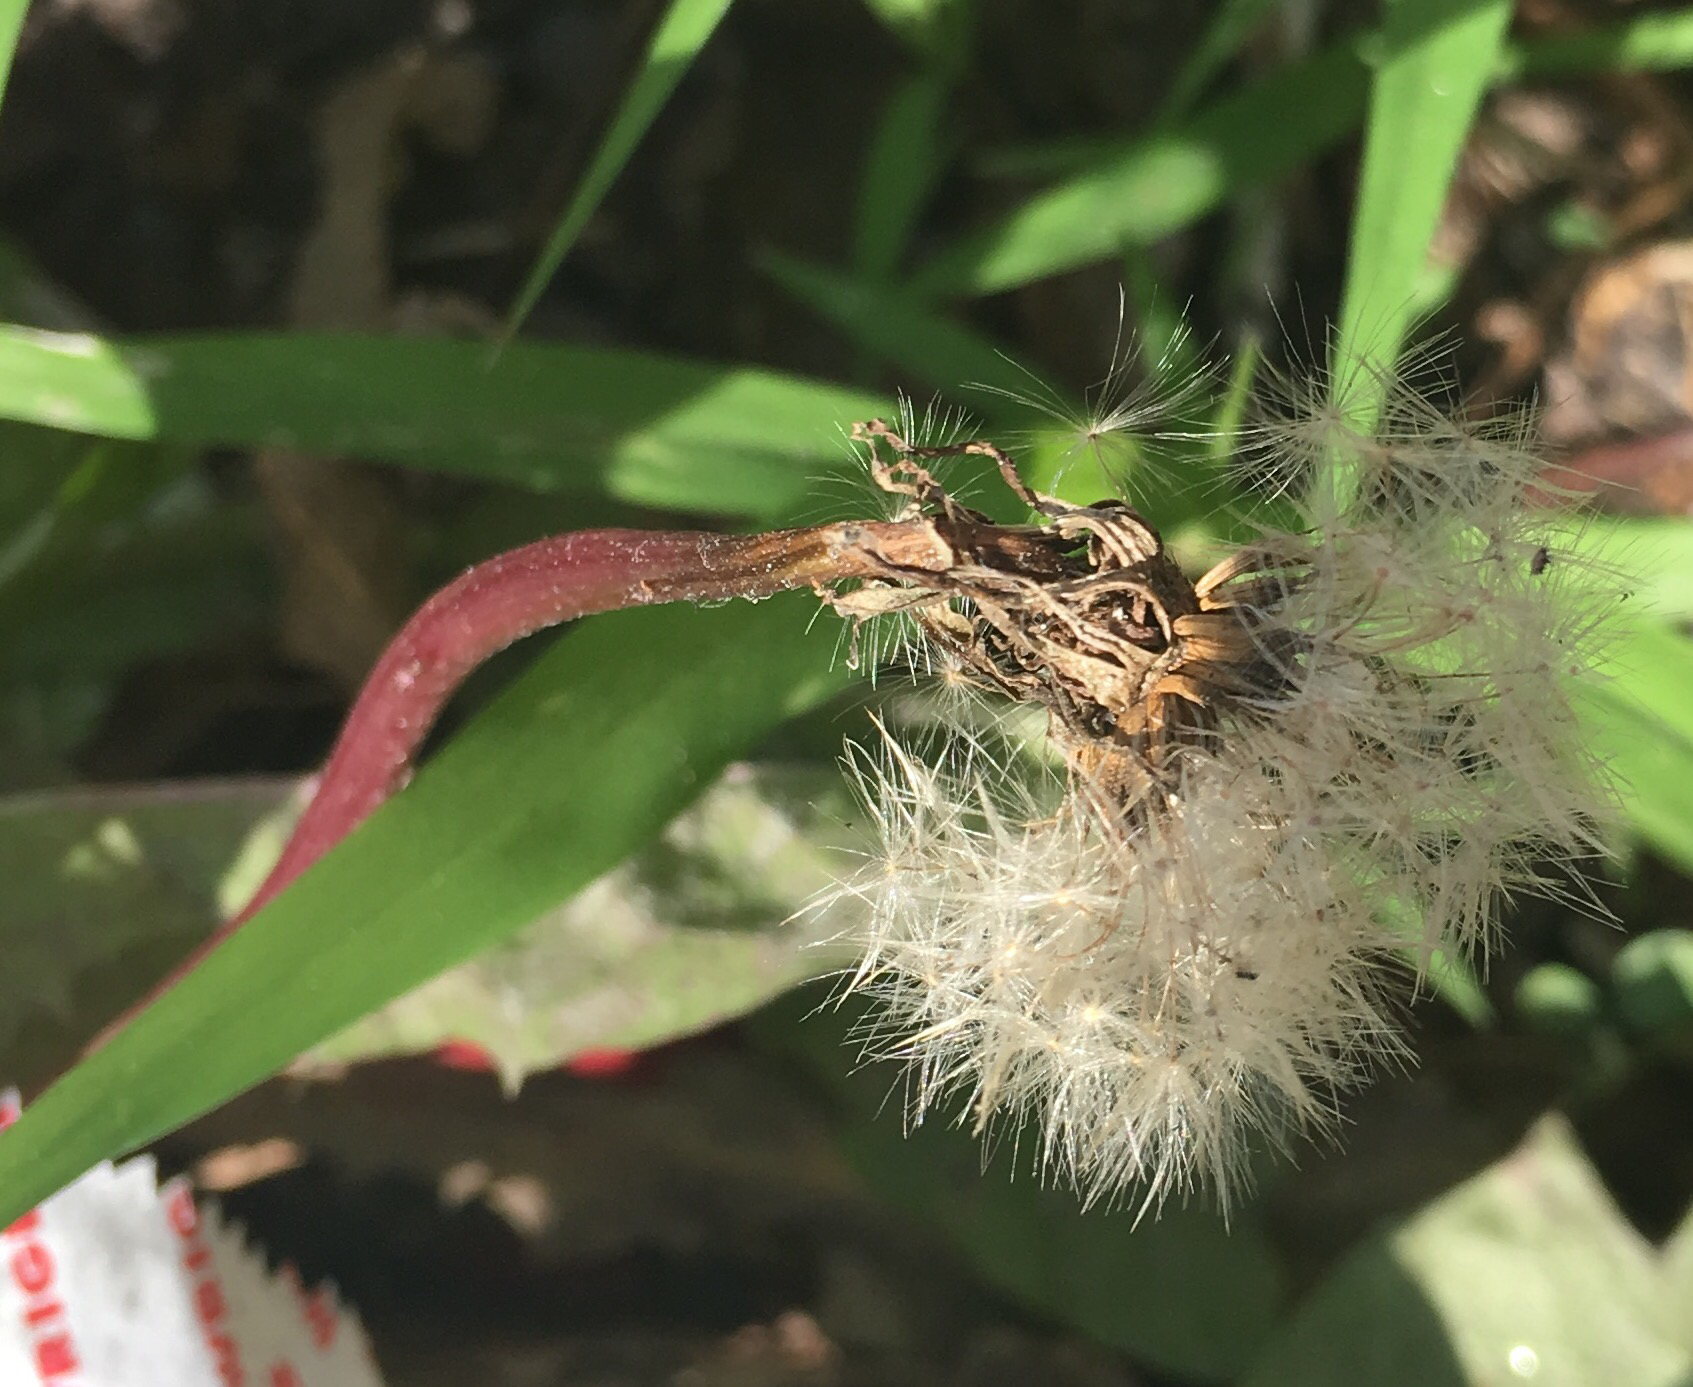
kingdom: Plantae
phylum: Tracheophyta
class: Magnoliopsida
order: Asterales
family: Asteraceae
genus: Taraxacum
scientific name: Taraxacum officinale
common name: Common dandelion
